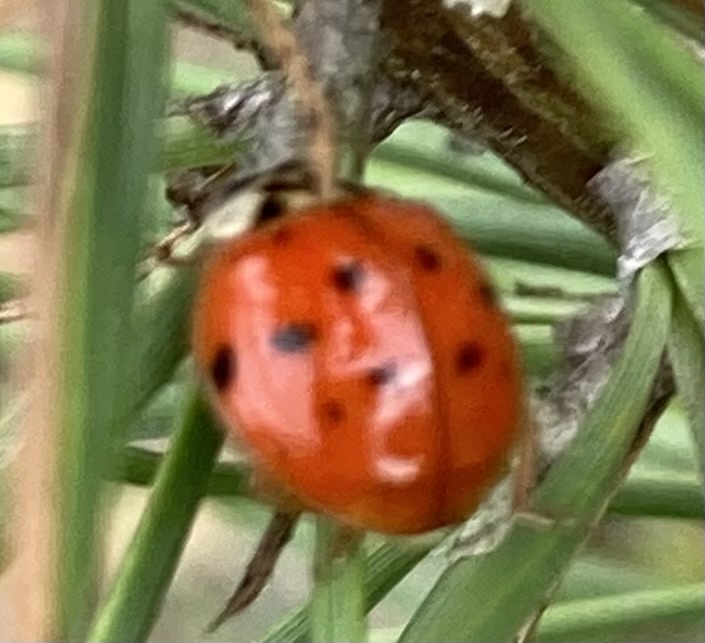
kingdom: Animalia
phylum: Arthropoda
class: Insecta
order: Coleoptera
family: Coccinellidae
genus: Harmonia
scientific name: Harmonia axyridis
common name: Harlequin ladybird
